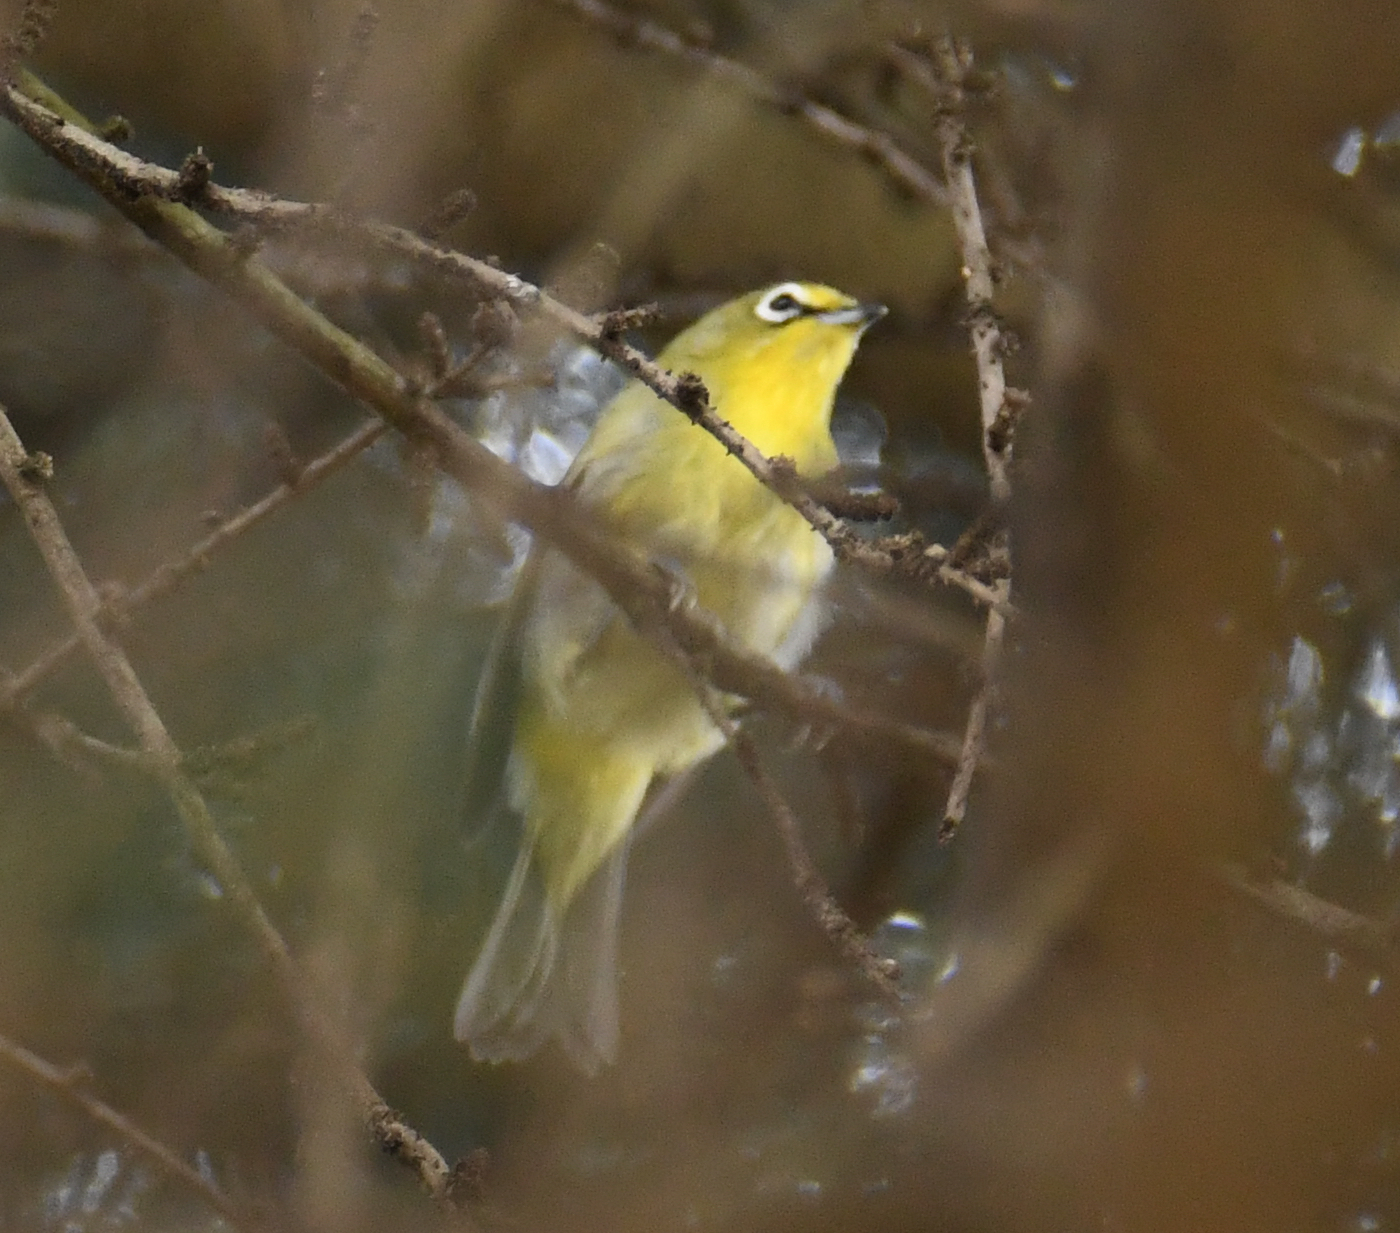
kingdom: Animalia
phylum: Chordata
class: Aves
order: Passeriformes
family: Zosteropidae
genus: Zosterops
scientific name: Zosterops virens
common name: Cape white-eye
